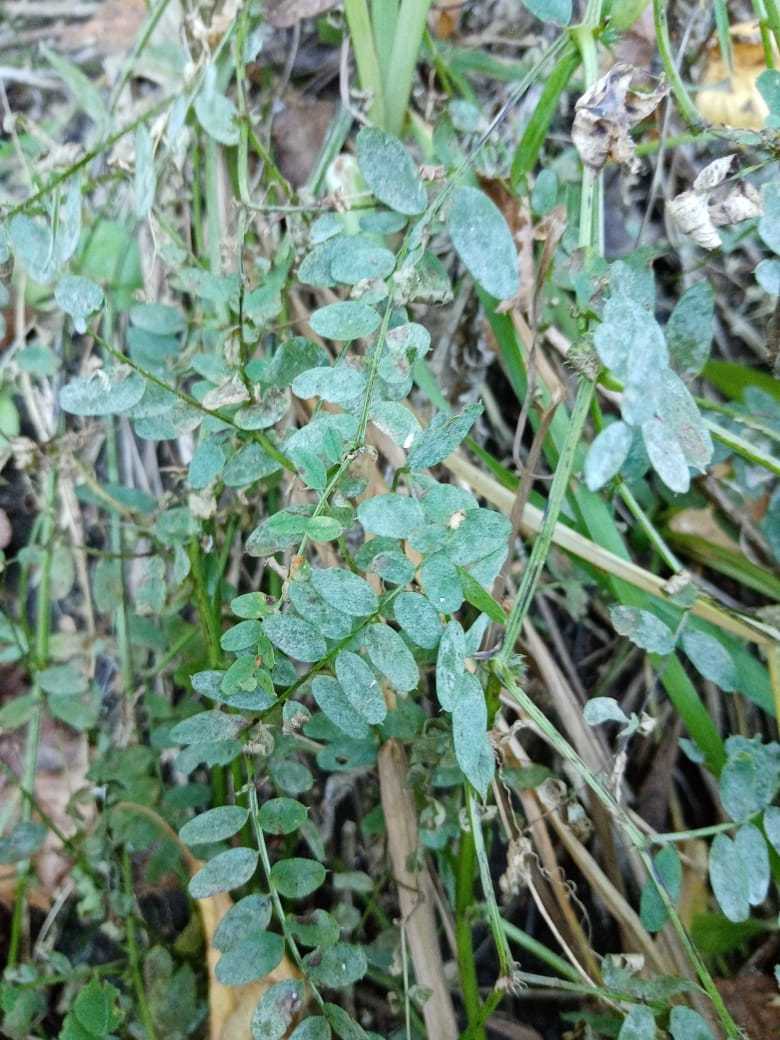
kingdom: Plantae
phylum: Tracheophyta
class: Magnoliopsida
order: Fabales
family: Fabaceae
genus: Vicia
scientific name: Vicia sylvatica
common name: Wood vetch
